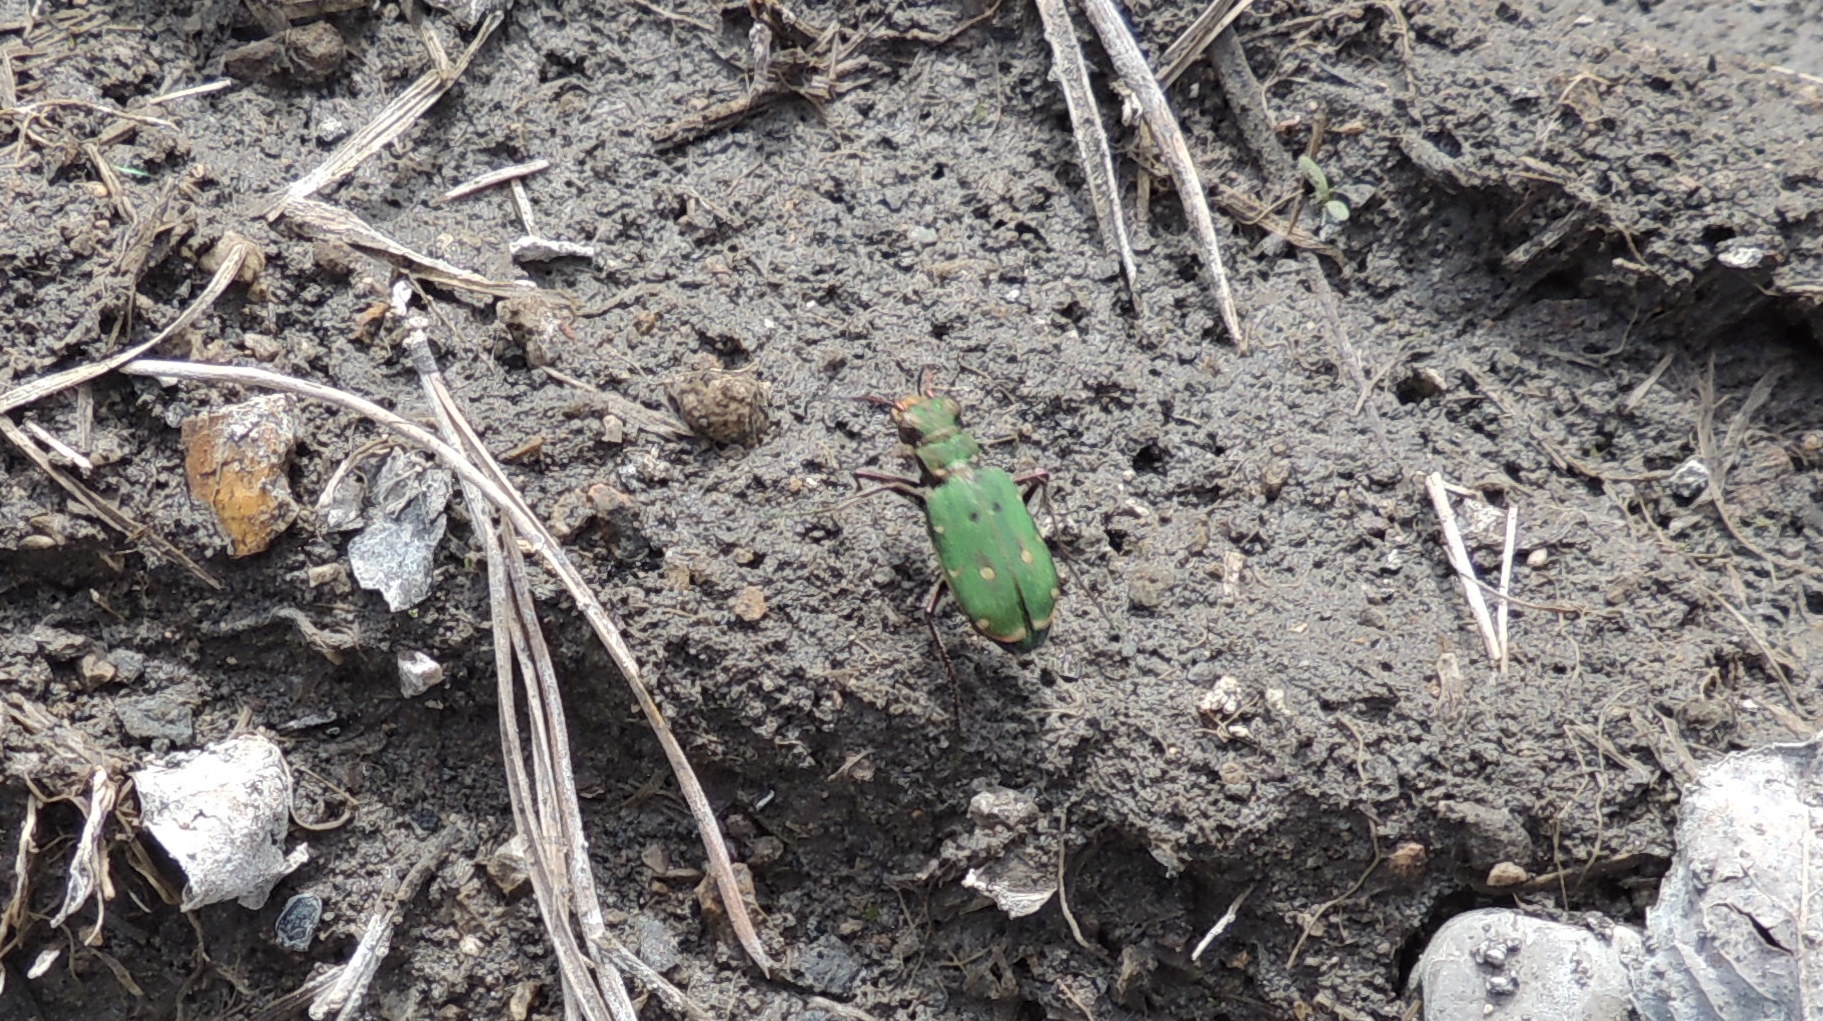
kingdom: Animalia
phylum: Arthropoda
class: Insecta
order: Coleoptera
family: Carabidae
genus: Cicindela
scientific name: Cicindela campestris
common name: Common tiger beetle
